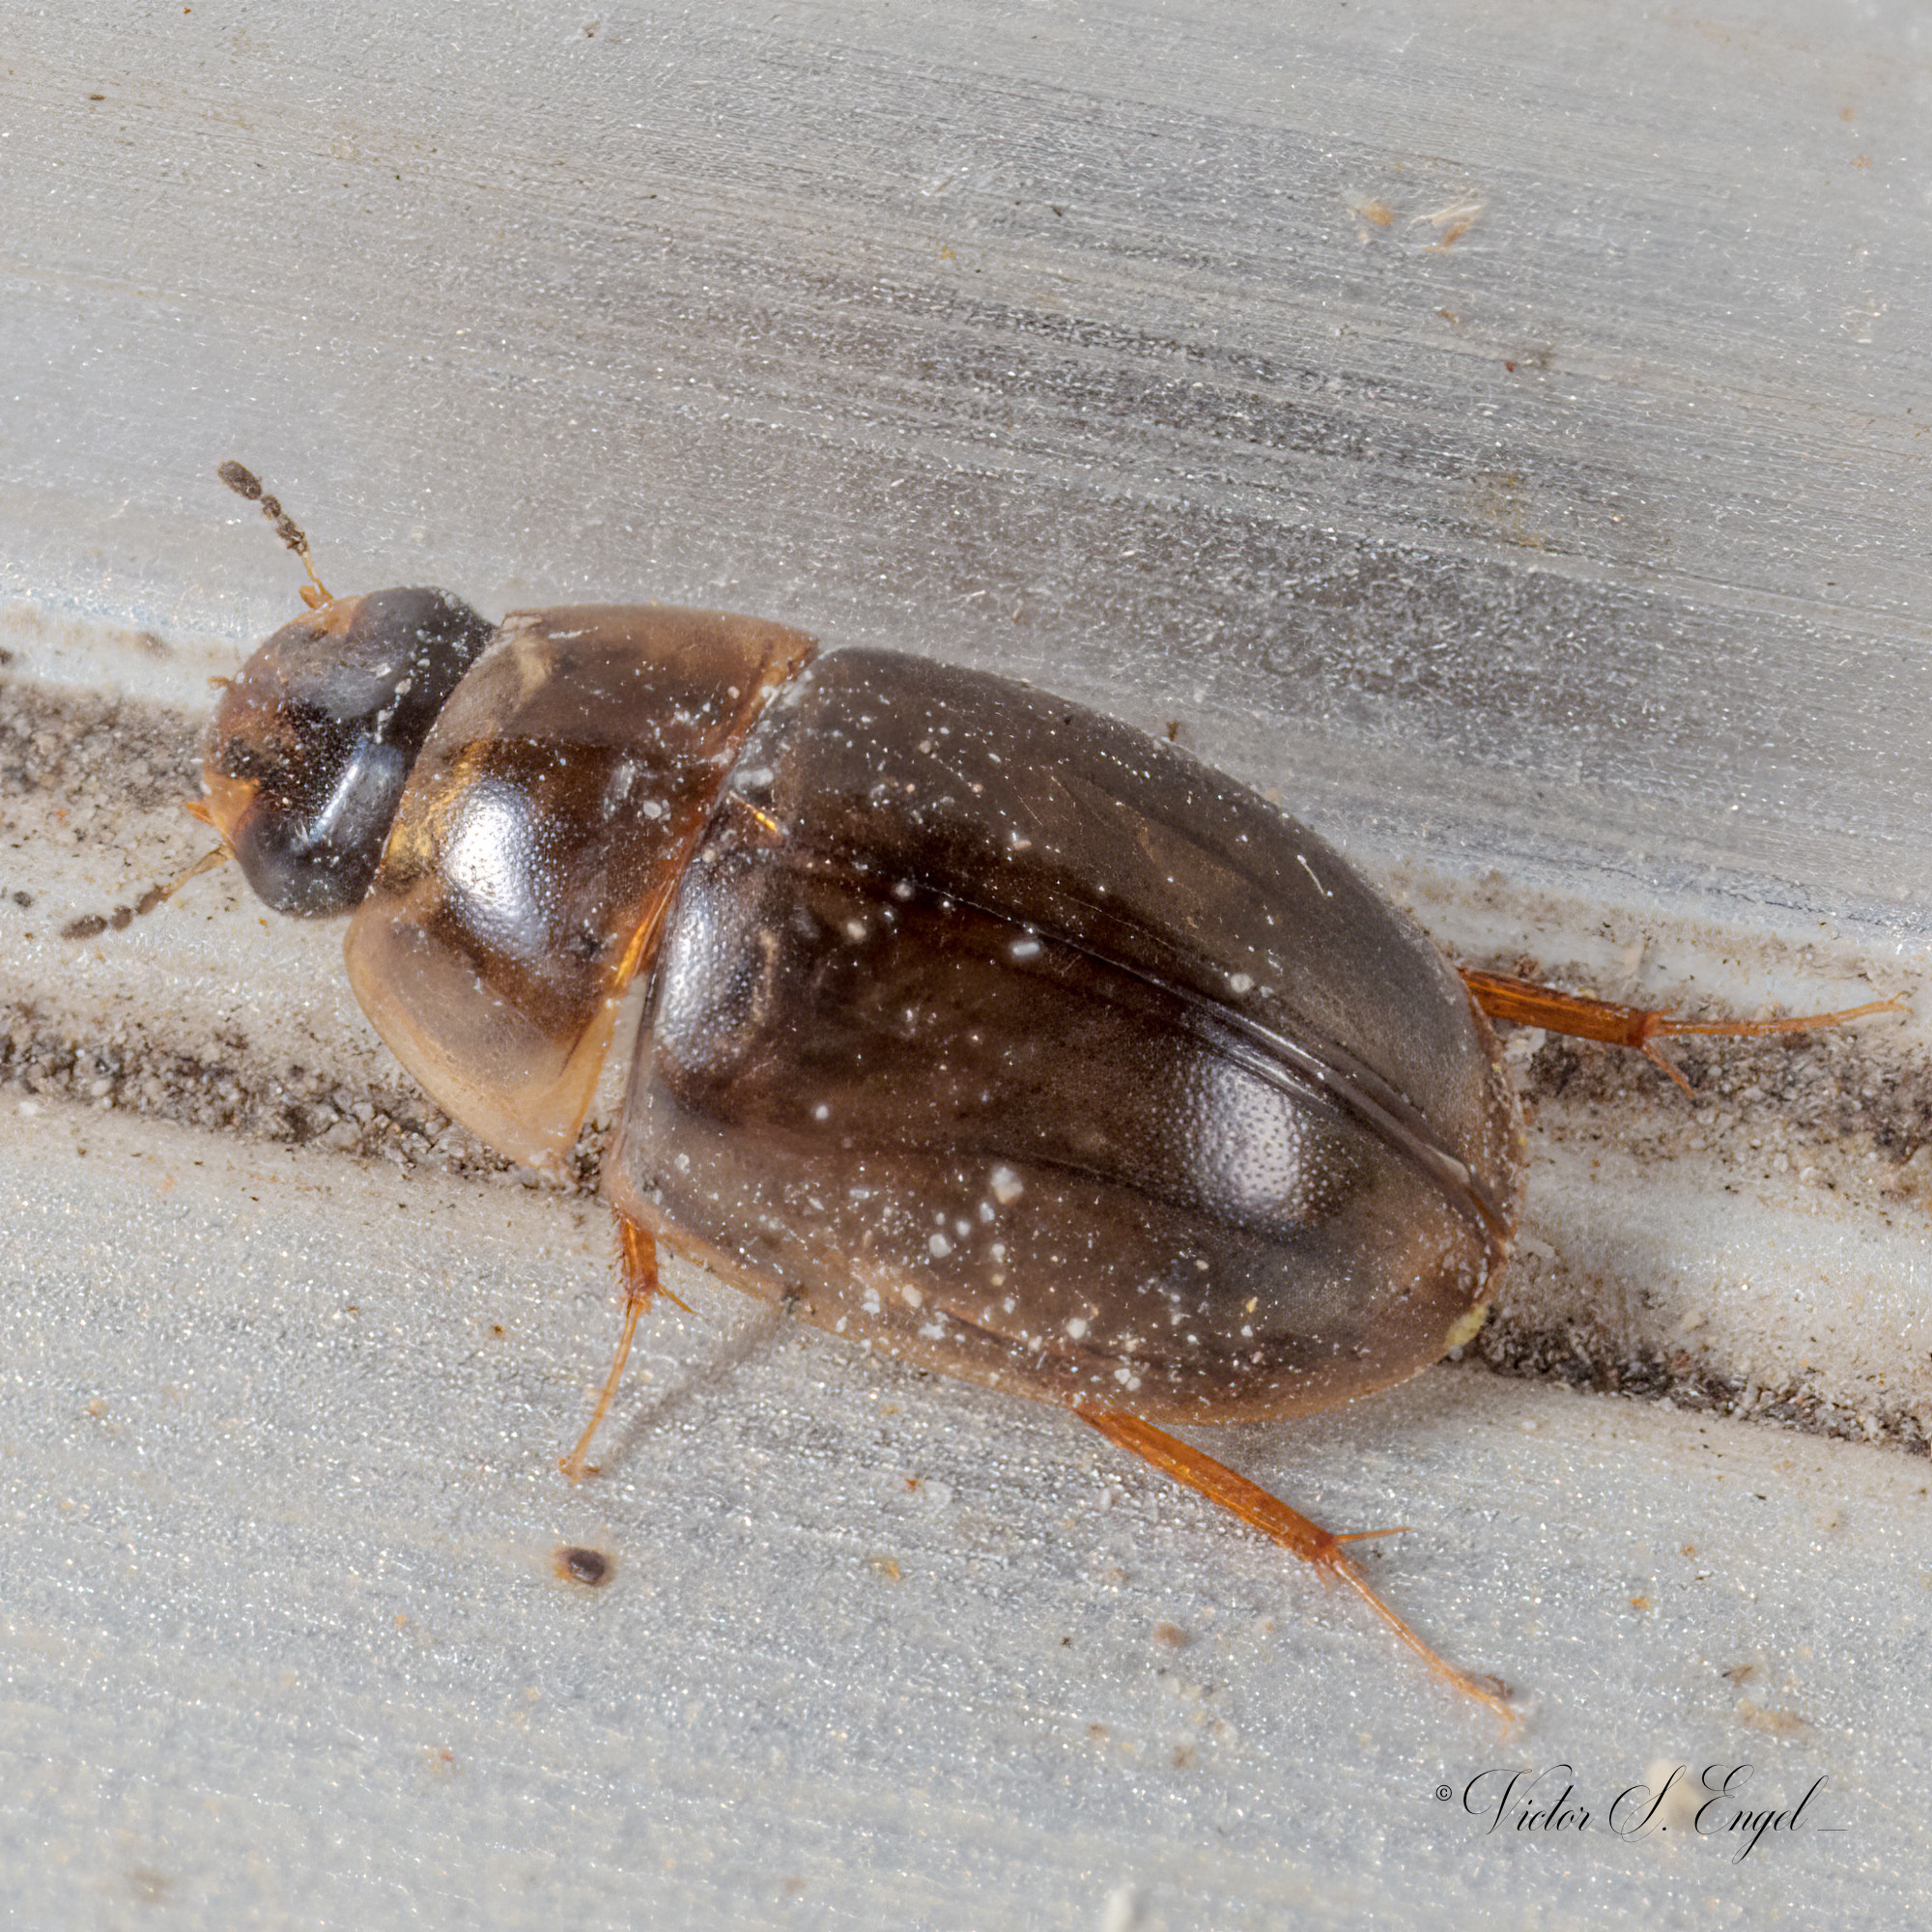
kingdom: Animalia
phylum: Arthropoda
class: Insecta
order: Coleoptera
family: Hydrophilidae
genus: Enochrus
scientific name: Enochrus
